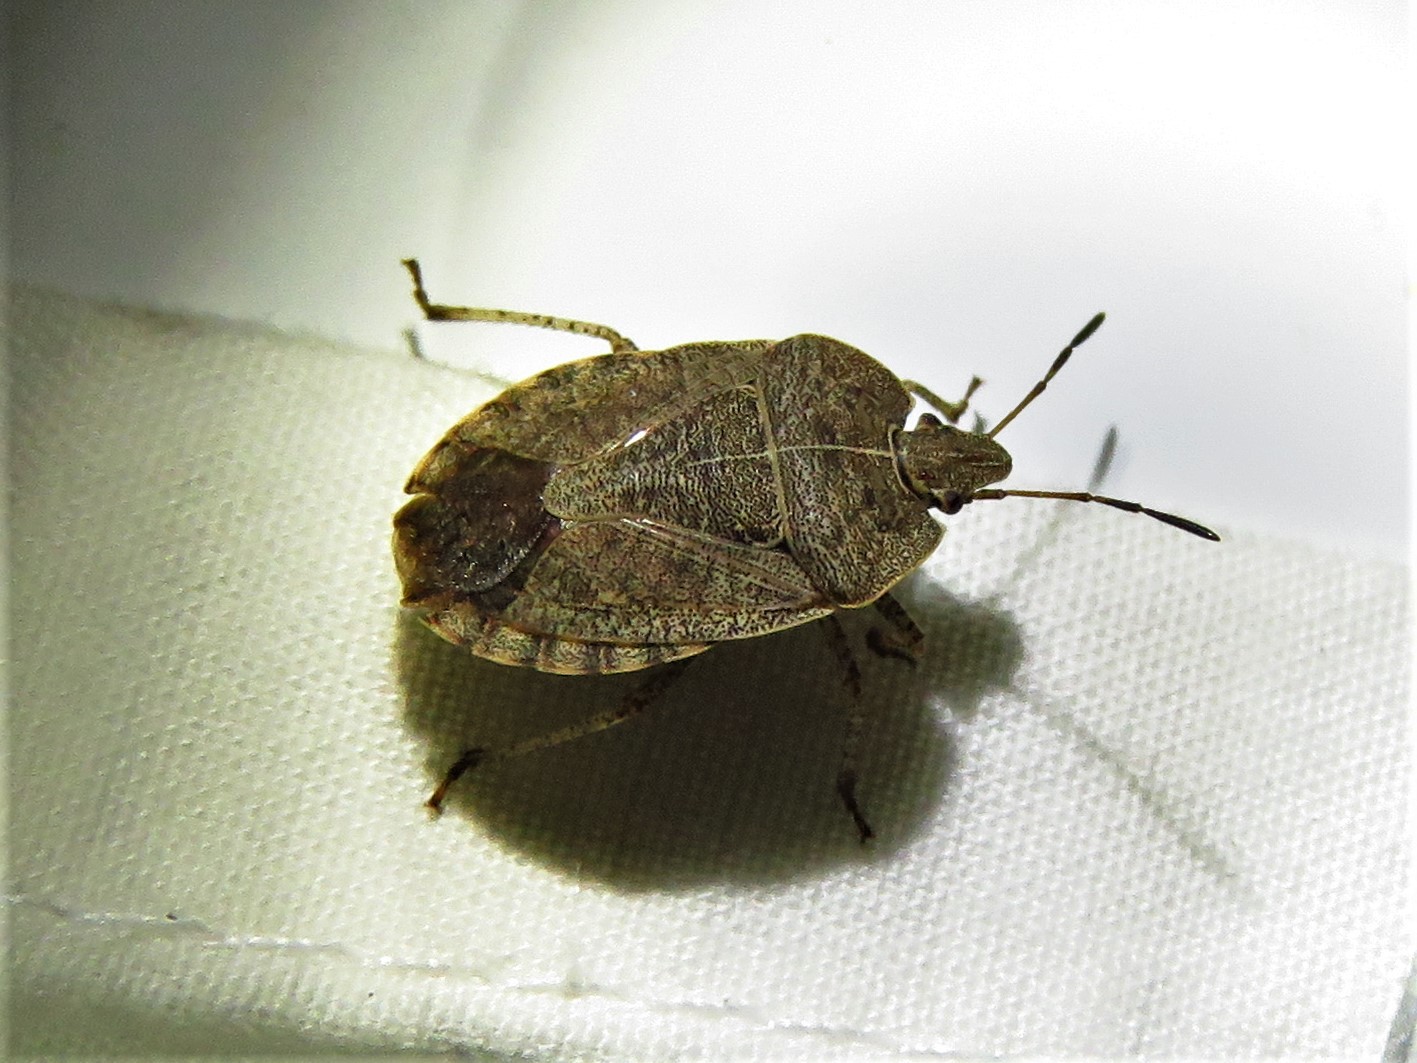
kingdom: Animalia
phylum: Arthropoda
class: Insecta
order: Hemiptera
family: Pentatomidae
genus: Menecles
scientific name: Menecles insertus
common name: Elf shoe stink bug
